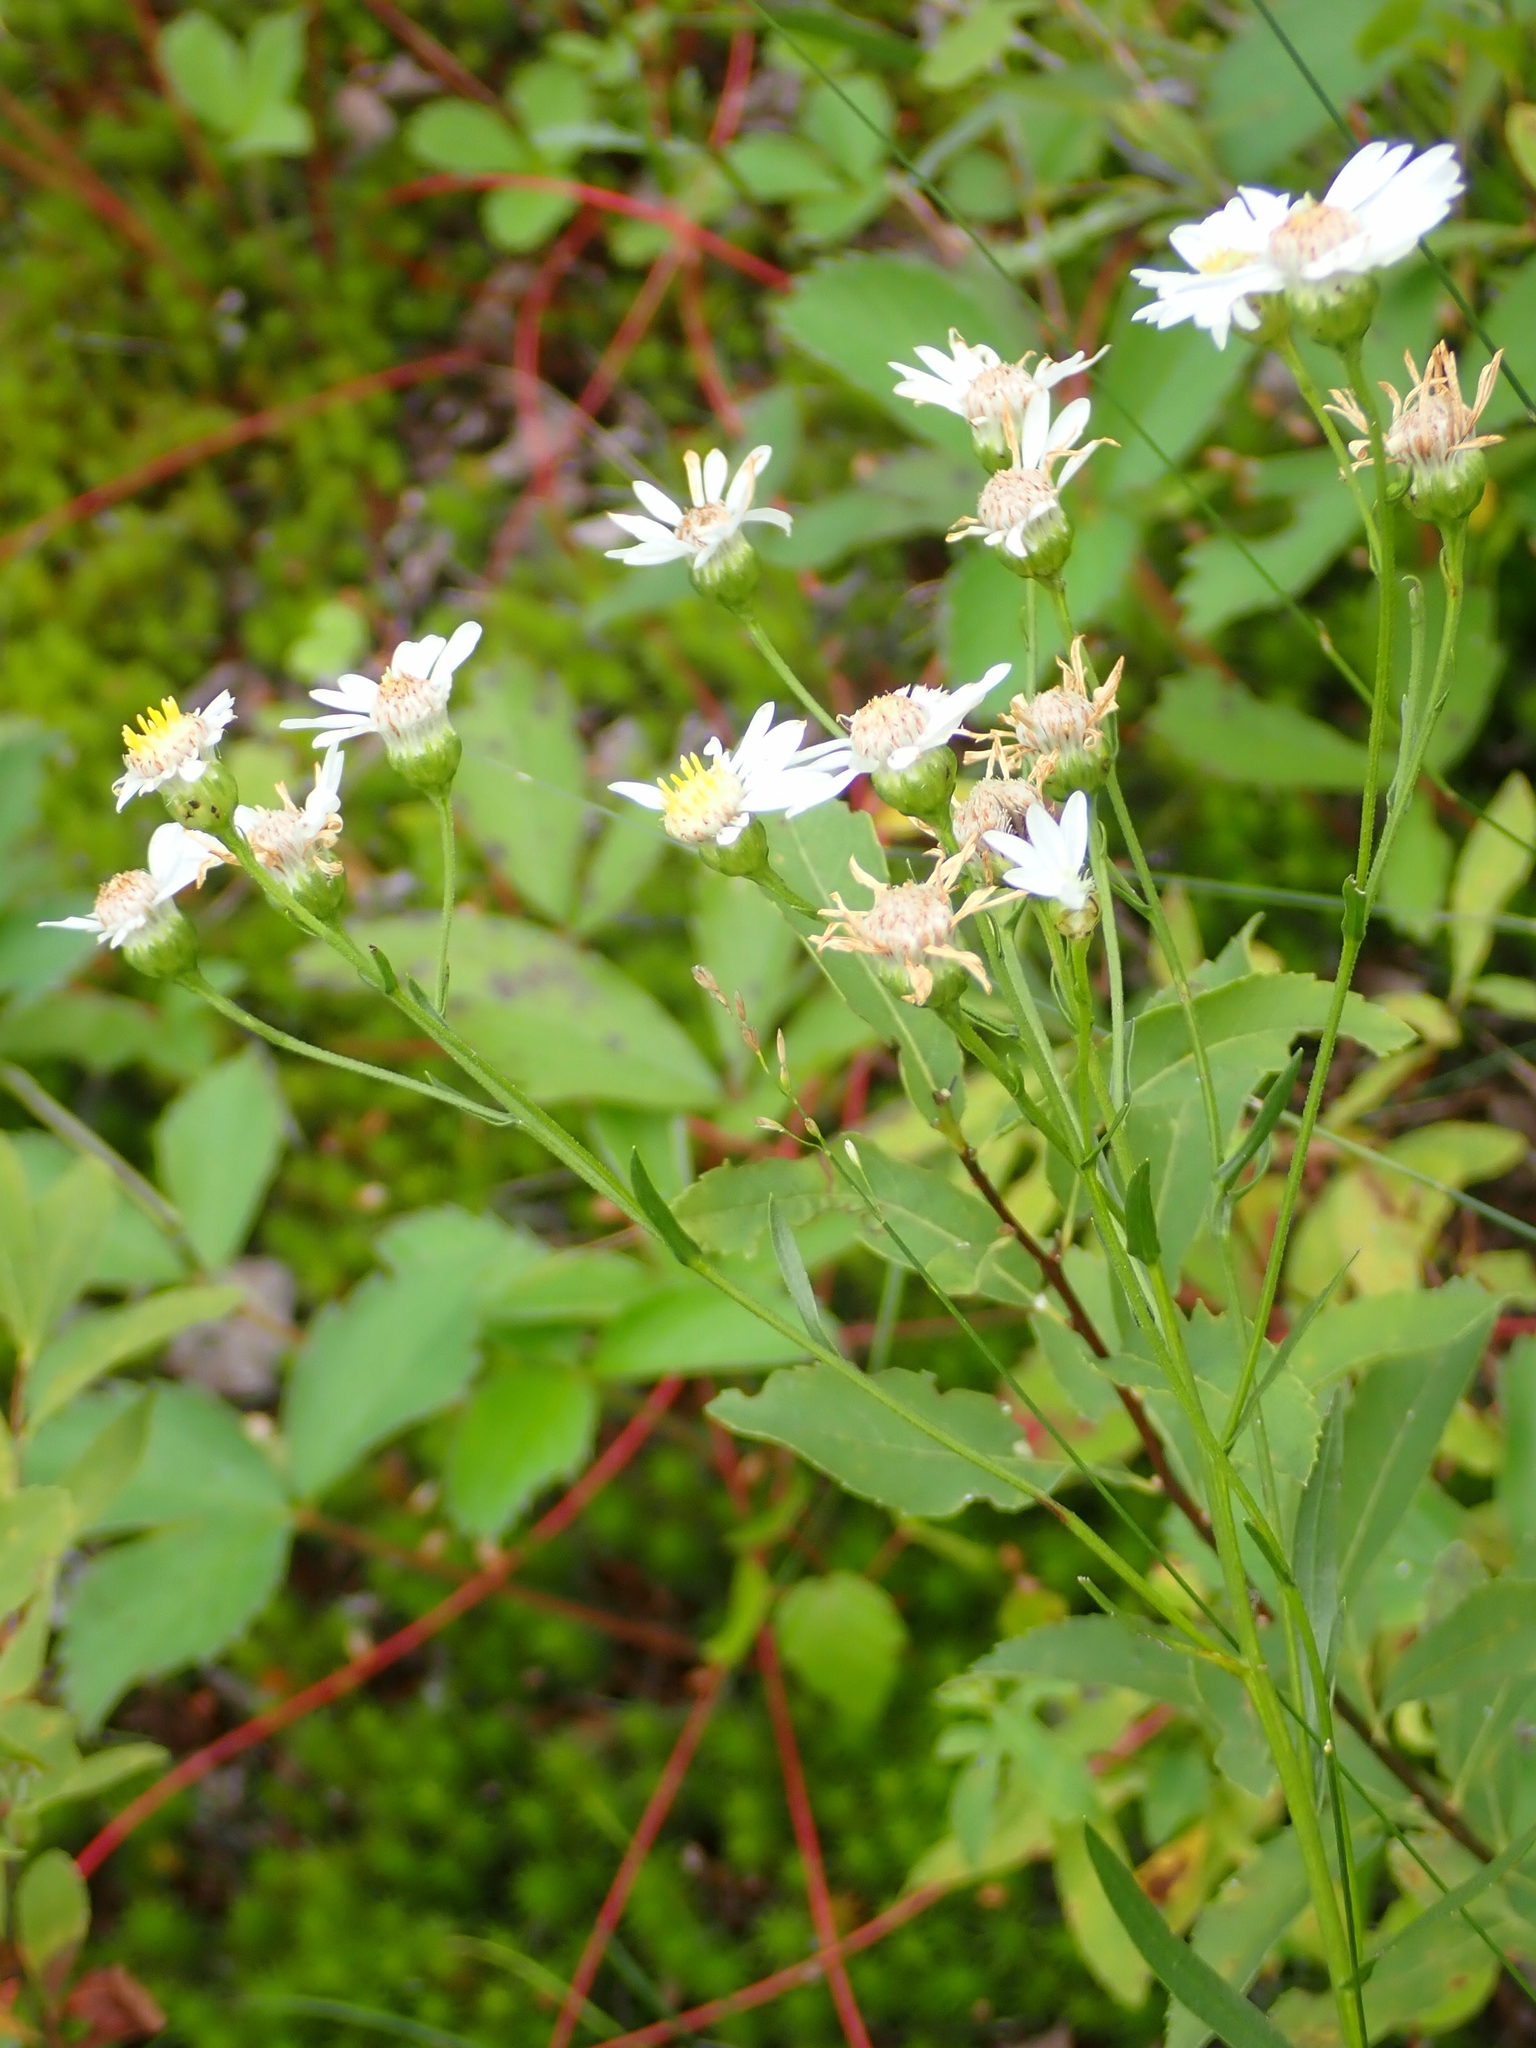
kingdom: Plantae
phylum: Tracheophyta
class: Magnoliopsida
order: Asterales
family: Asteraceae
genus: Solidago
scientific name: Solidago ptarmicoides
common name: White flat-top goldenrod
